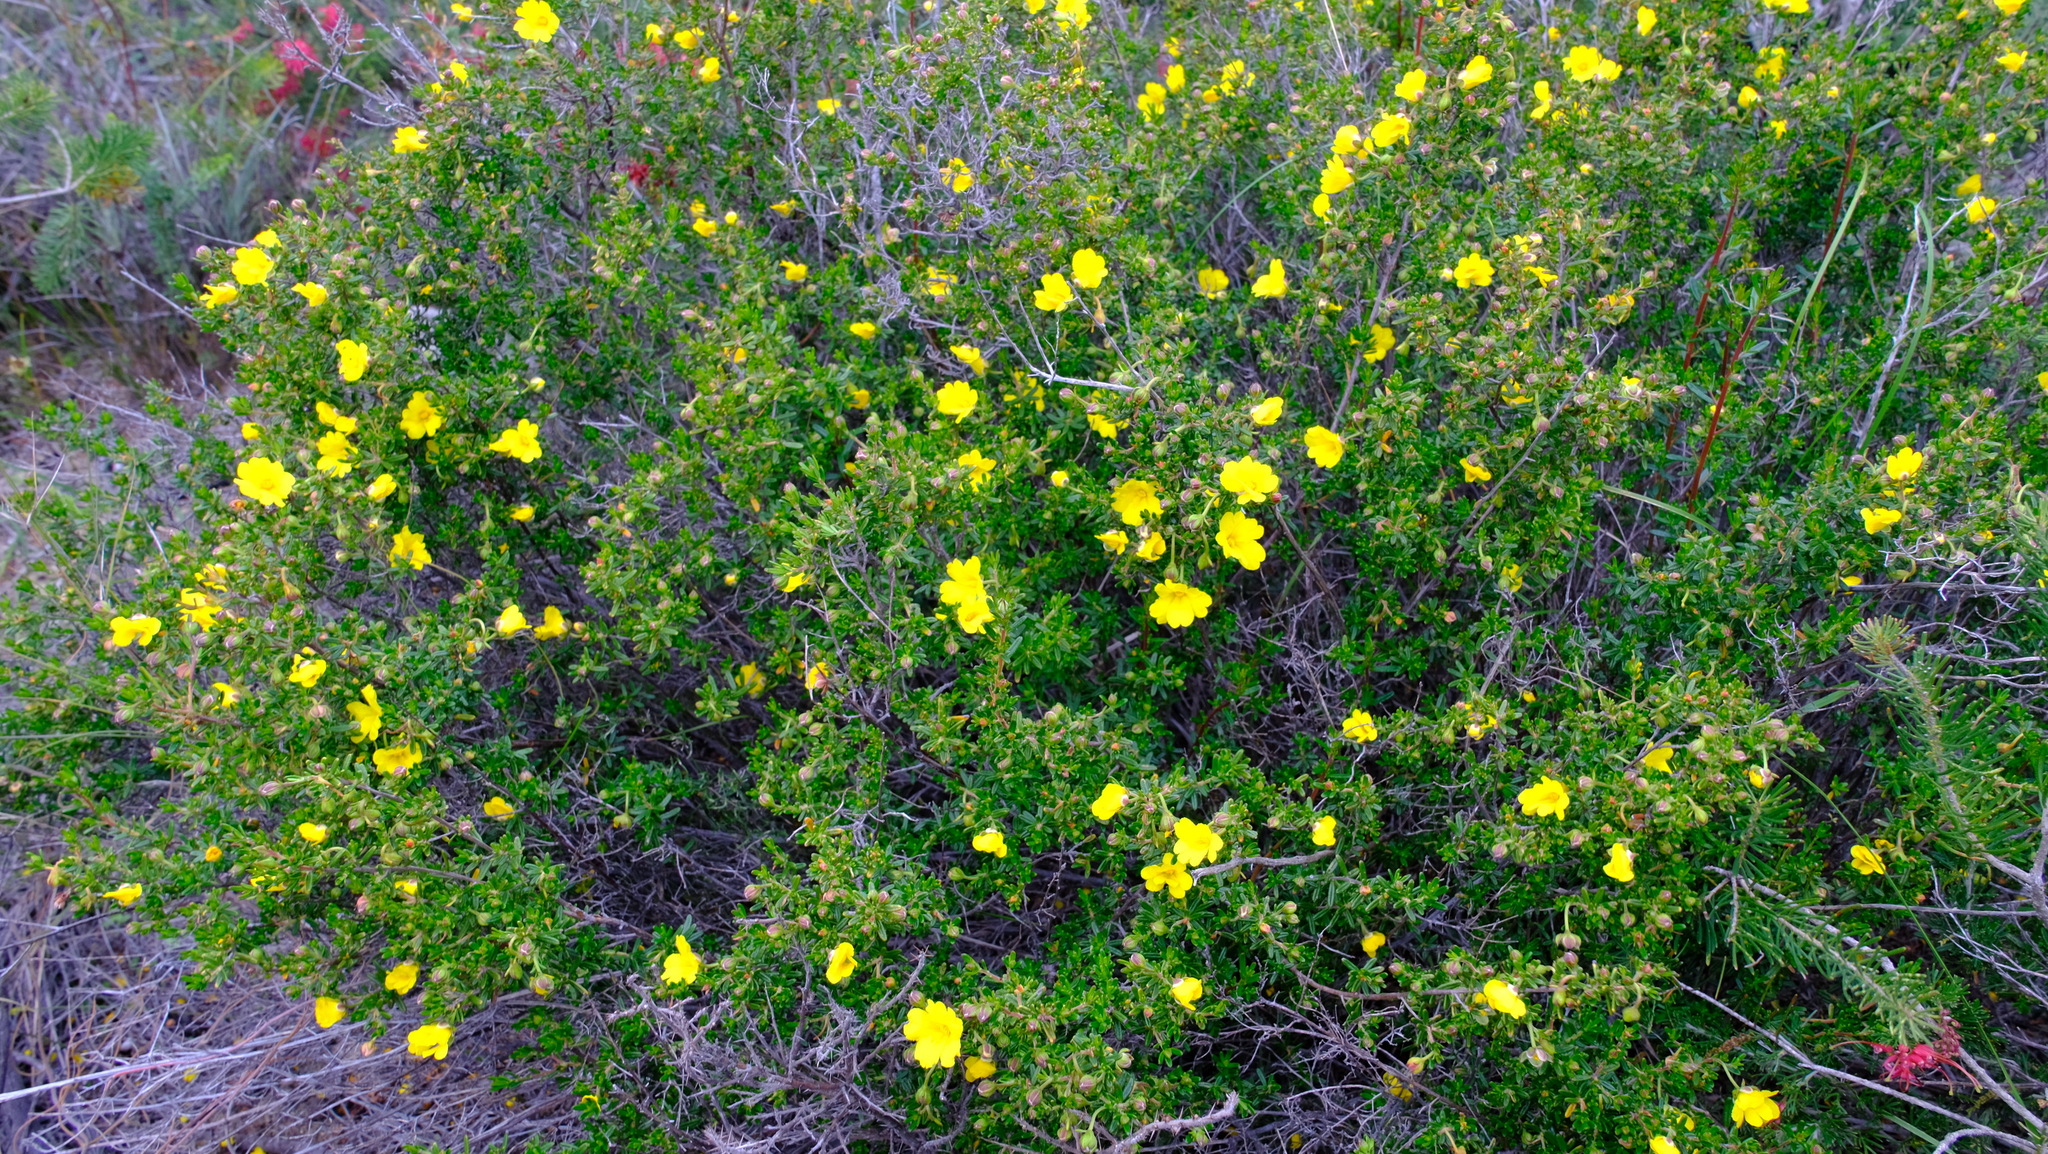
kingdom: Plantae
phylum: Tracheophyta
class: Magnoliopsida
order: Dilleniales
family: Dilleniaceae
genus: Hibbertia
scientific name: Hibbertia hypericoides
